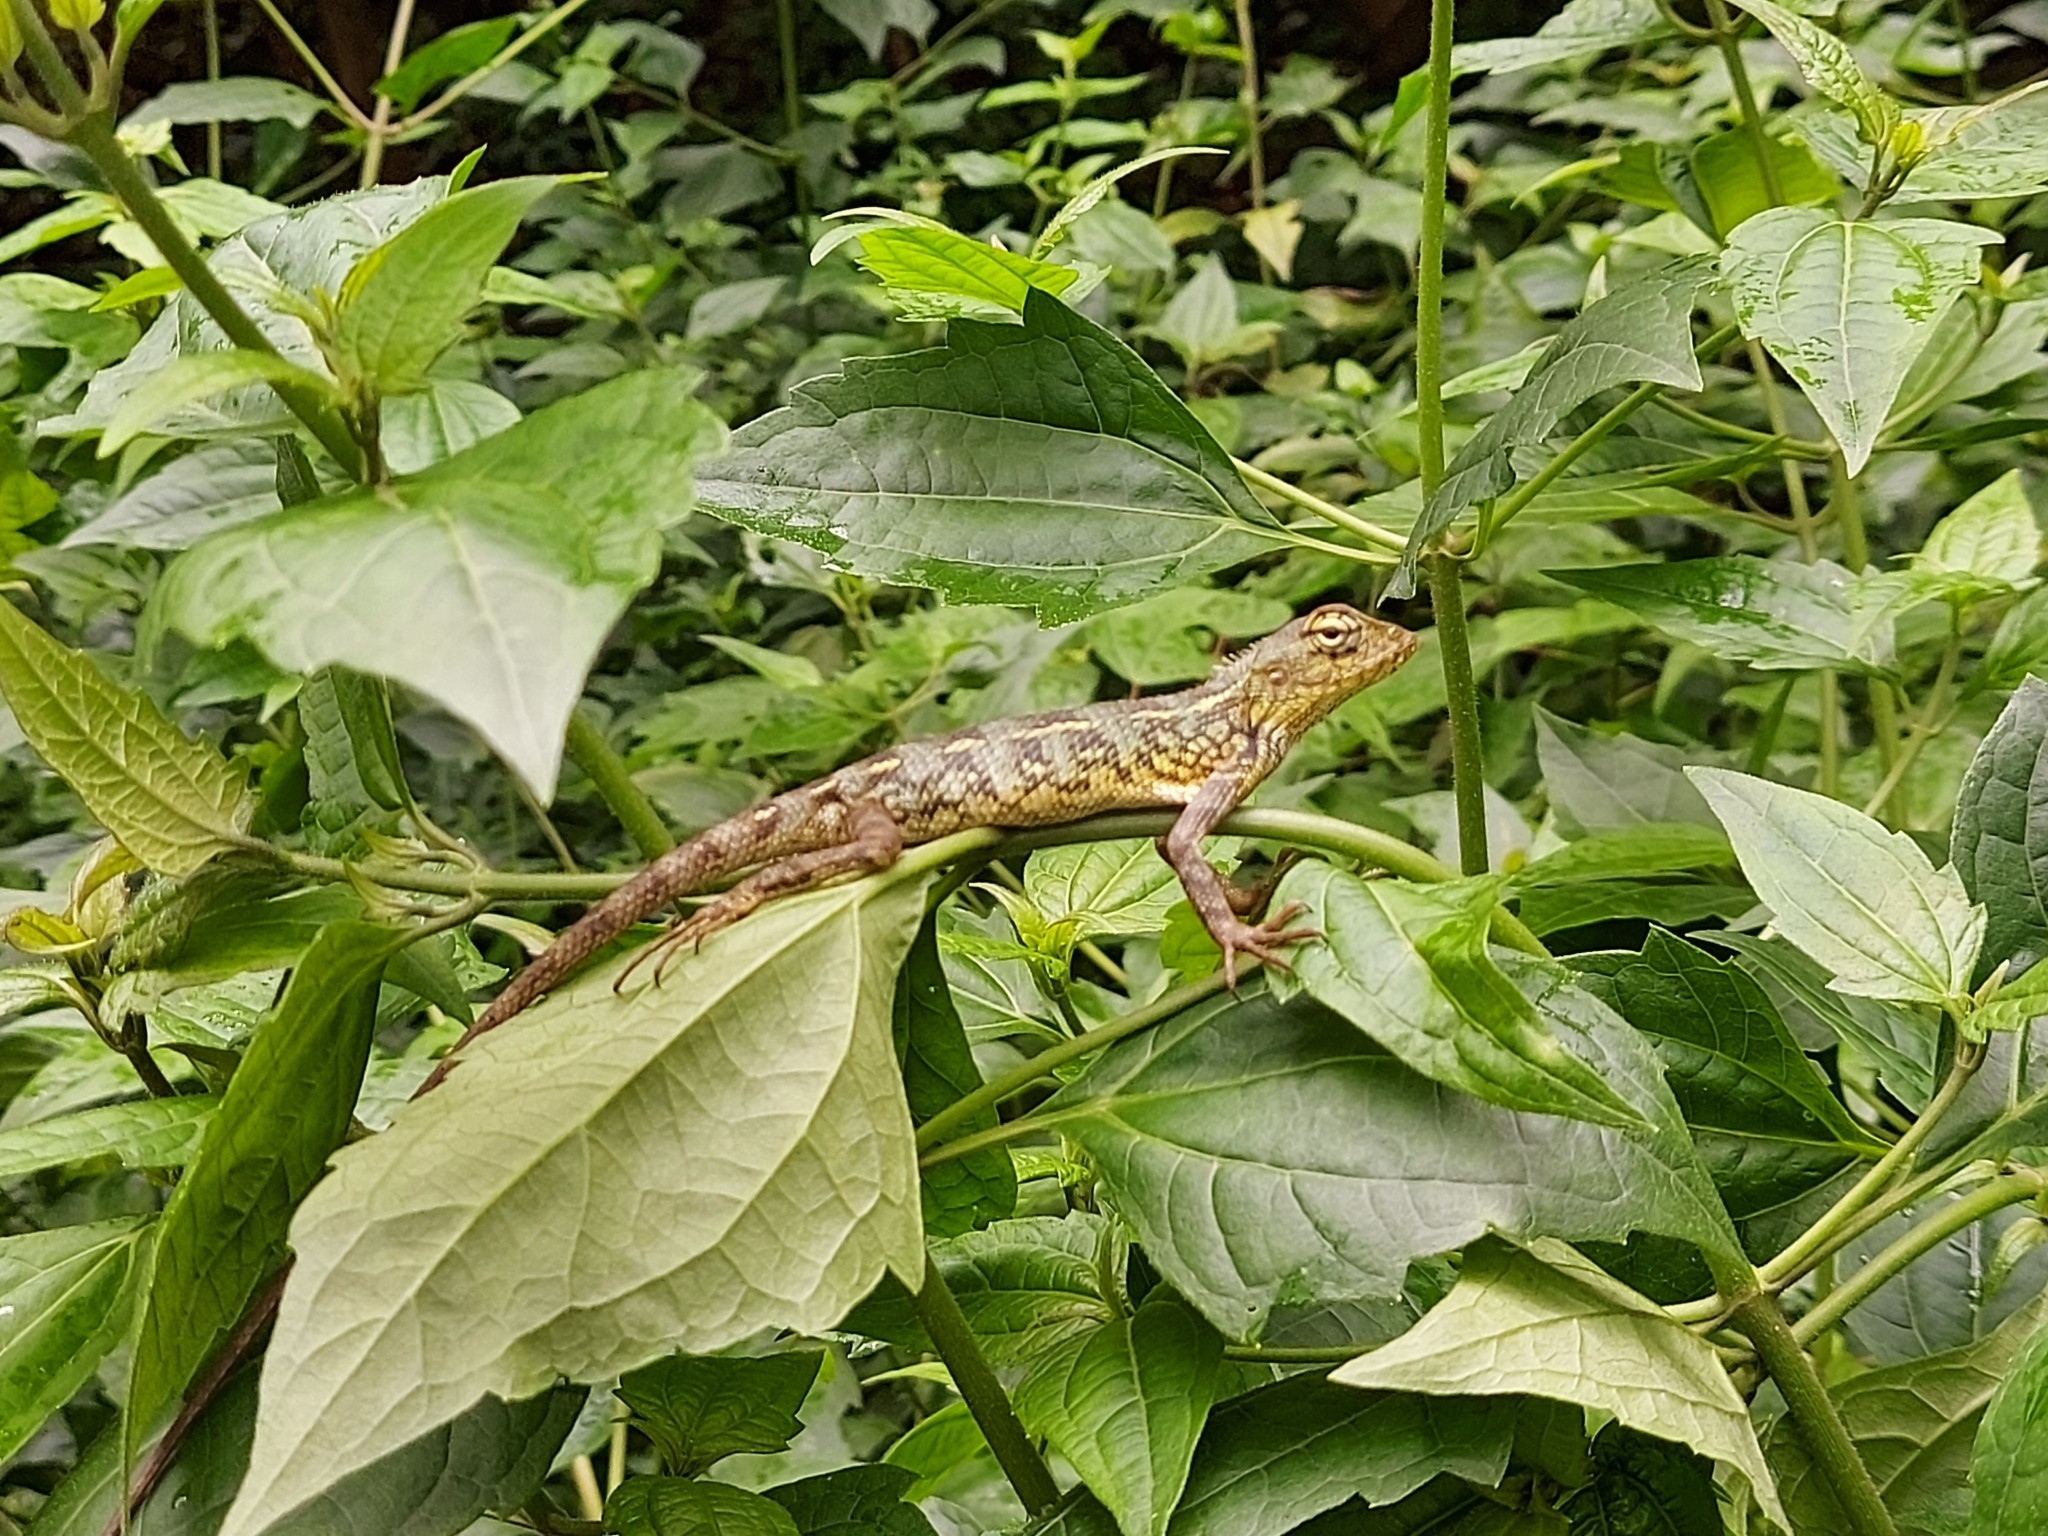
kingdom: Animalia
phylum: Chordata
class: Squamata
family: Agamidae
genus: Calotes
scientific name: Calotes versicolor
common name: Oriental garden lizard
